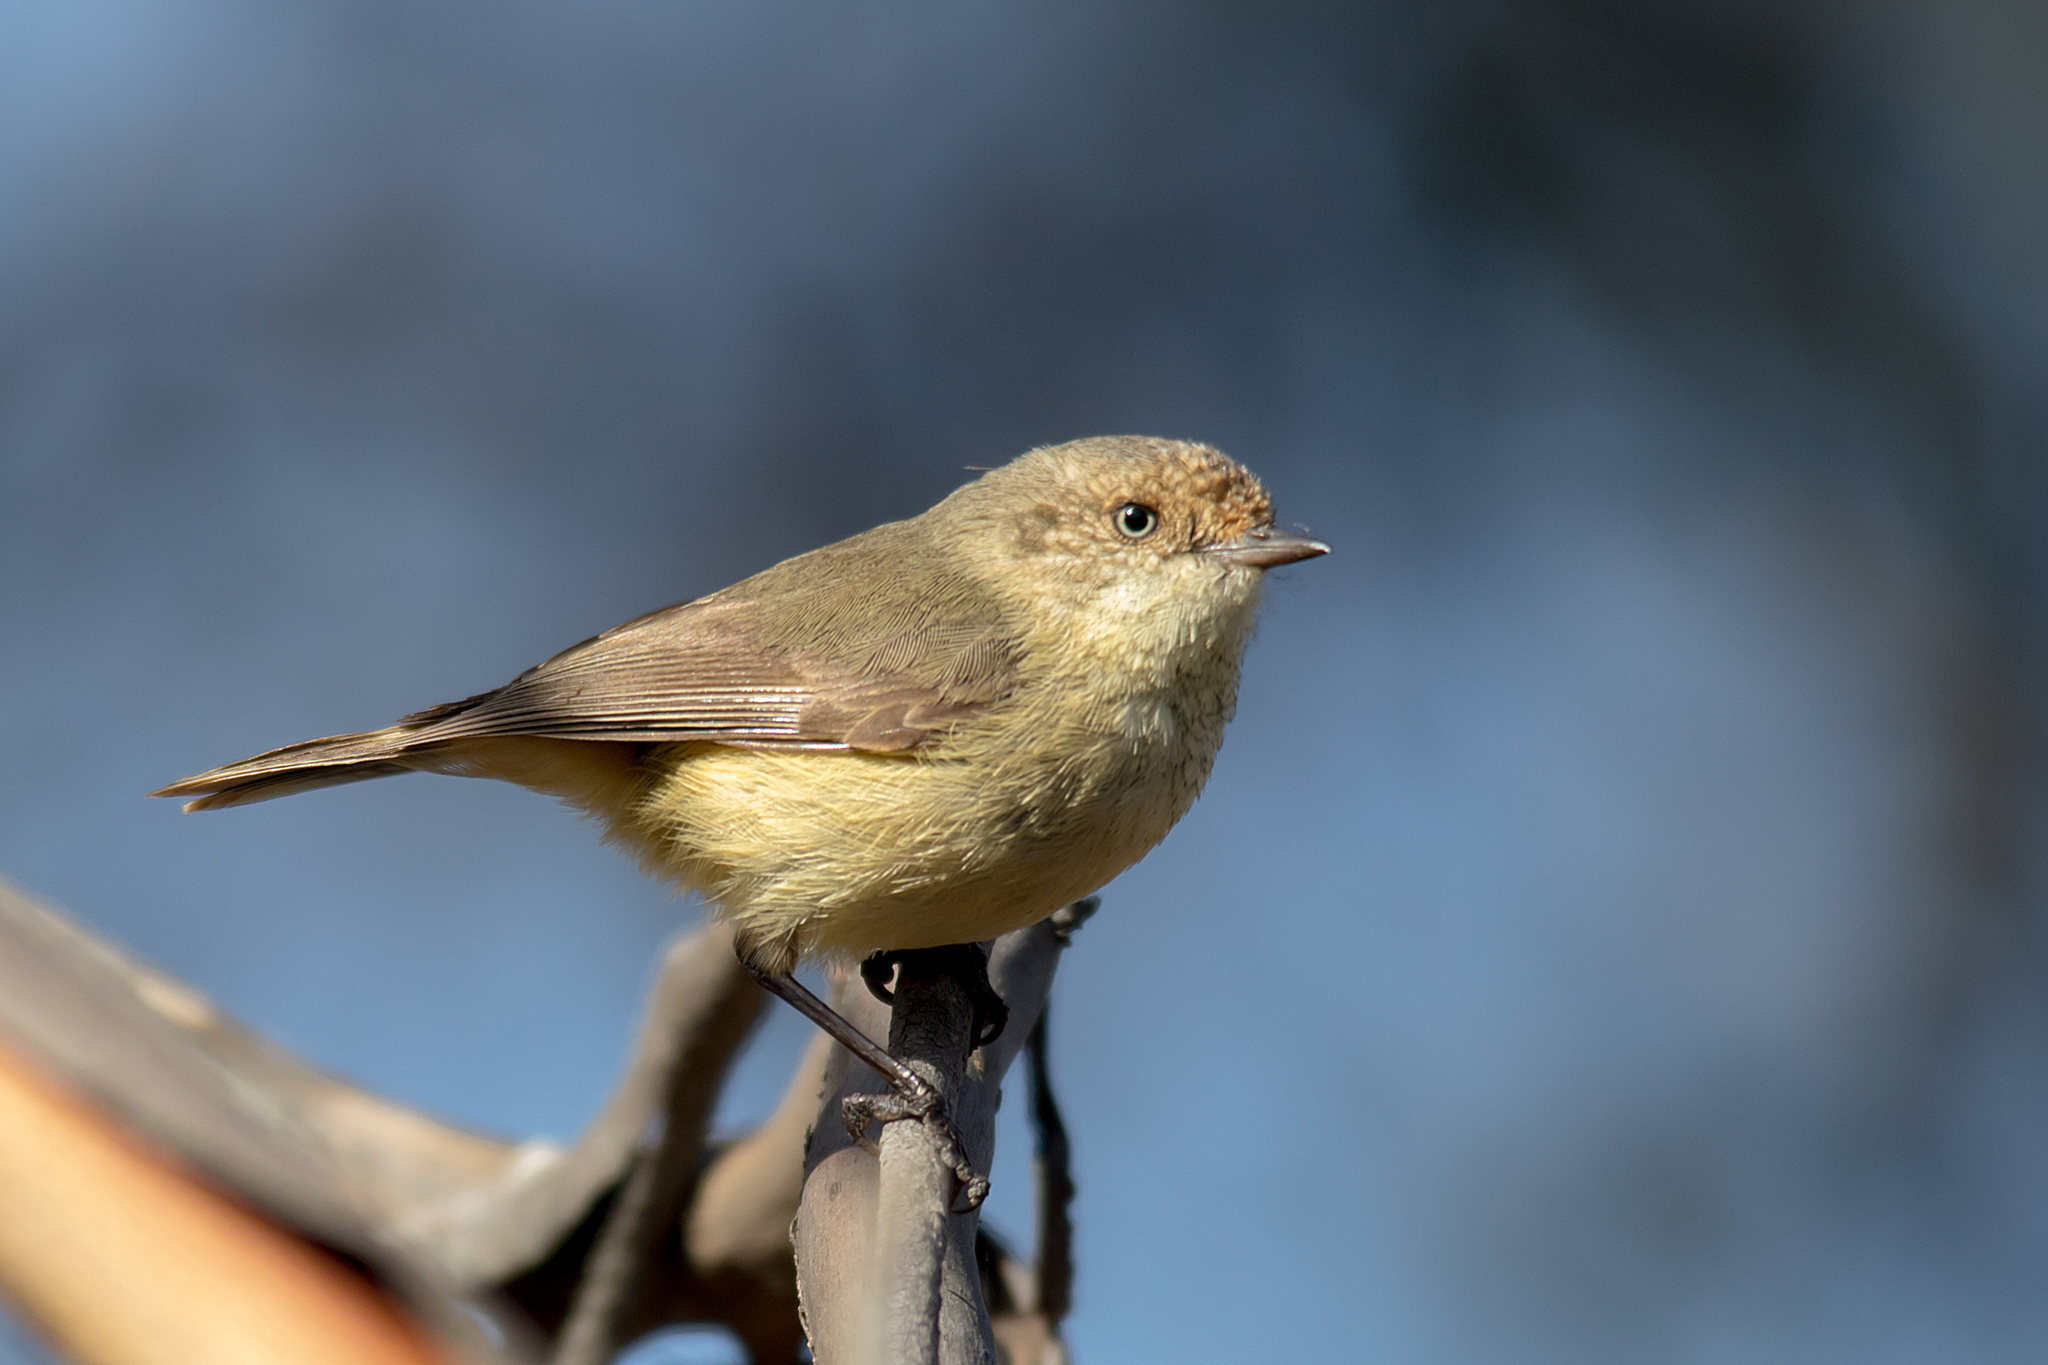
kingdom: Animalia
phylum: Chordata
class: Aves
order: Passeriformes
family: Acanthizidae
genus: Acanthiza
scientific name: Acanthiza reguloides
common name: Buff-rumped thornbill
